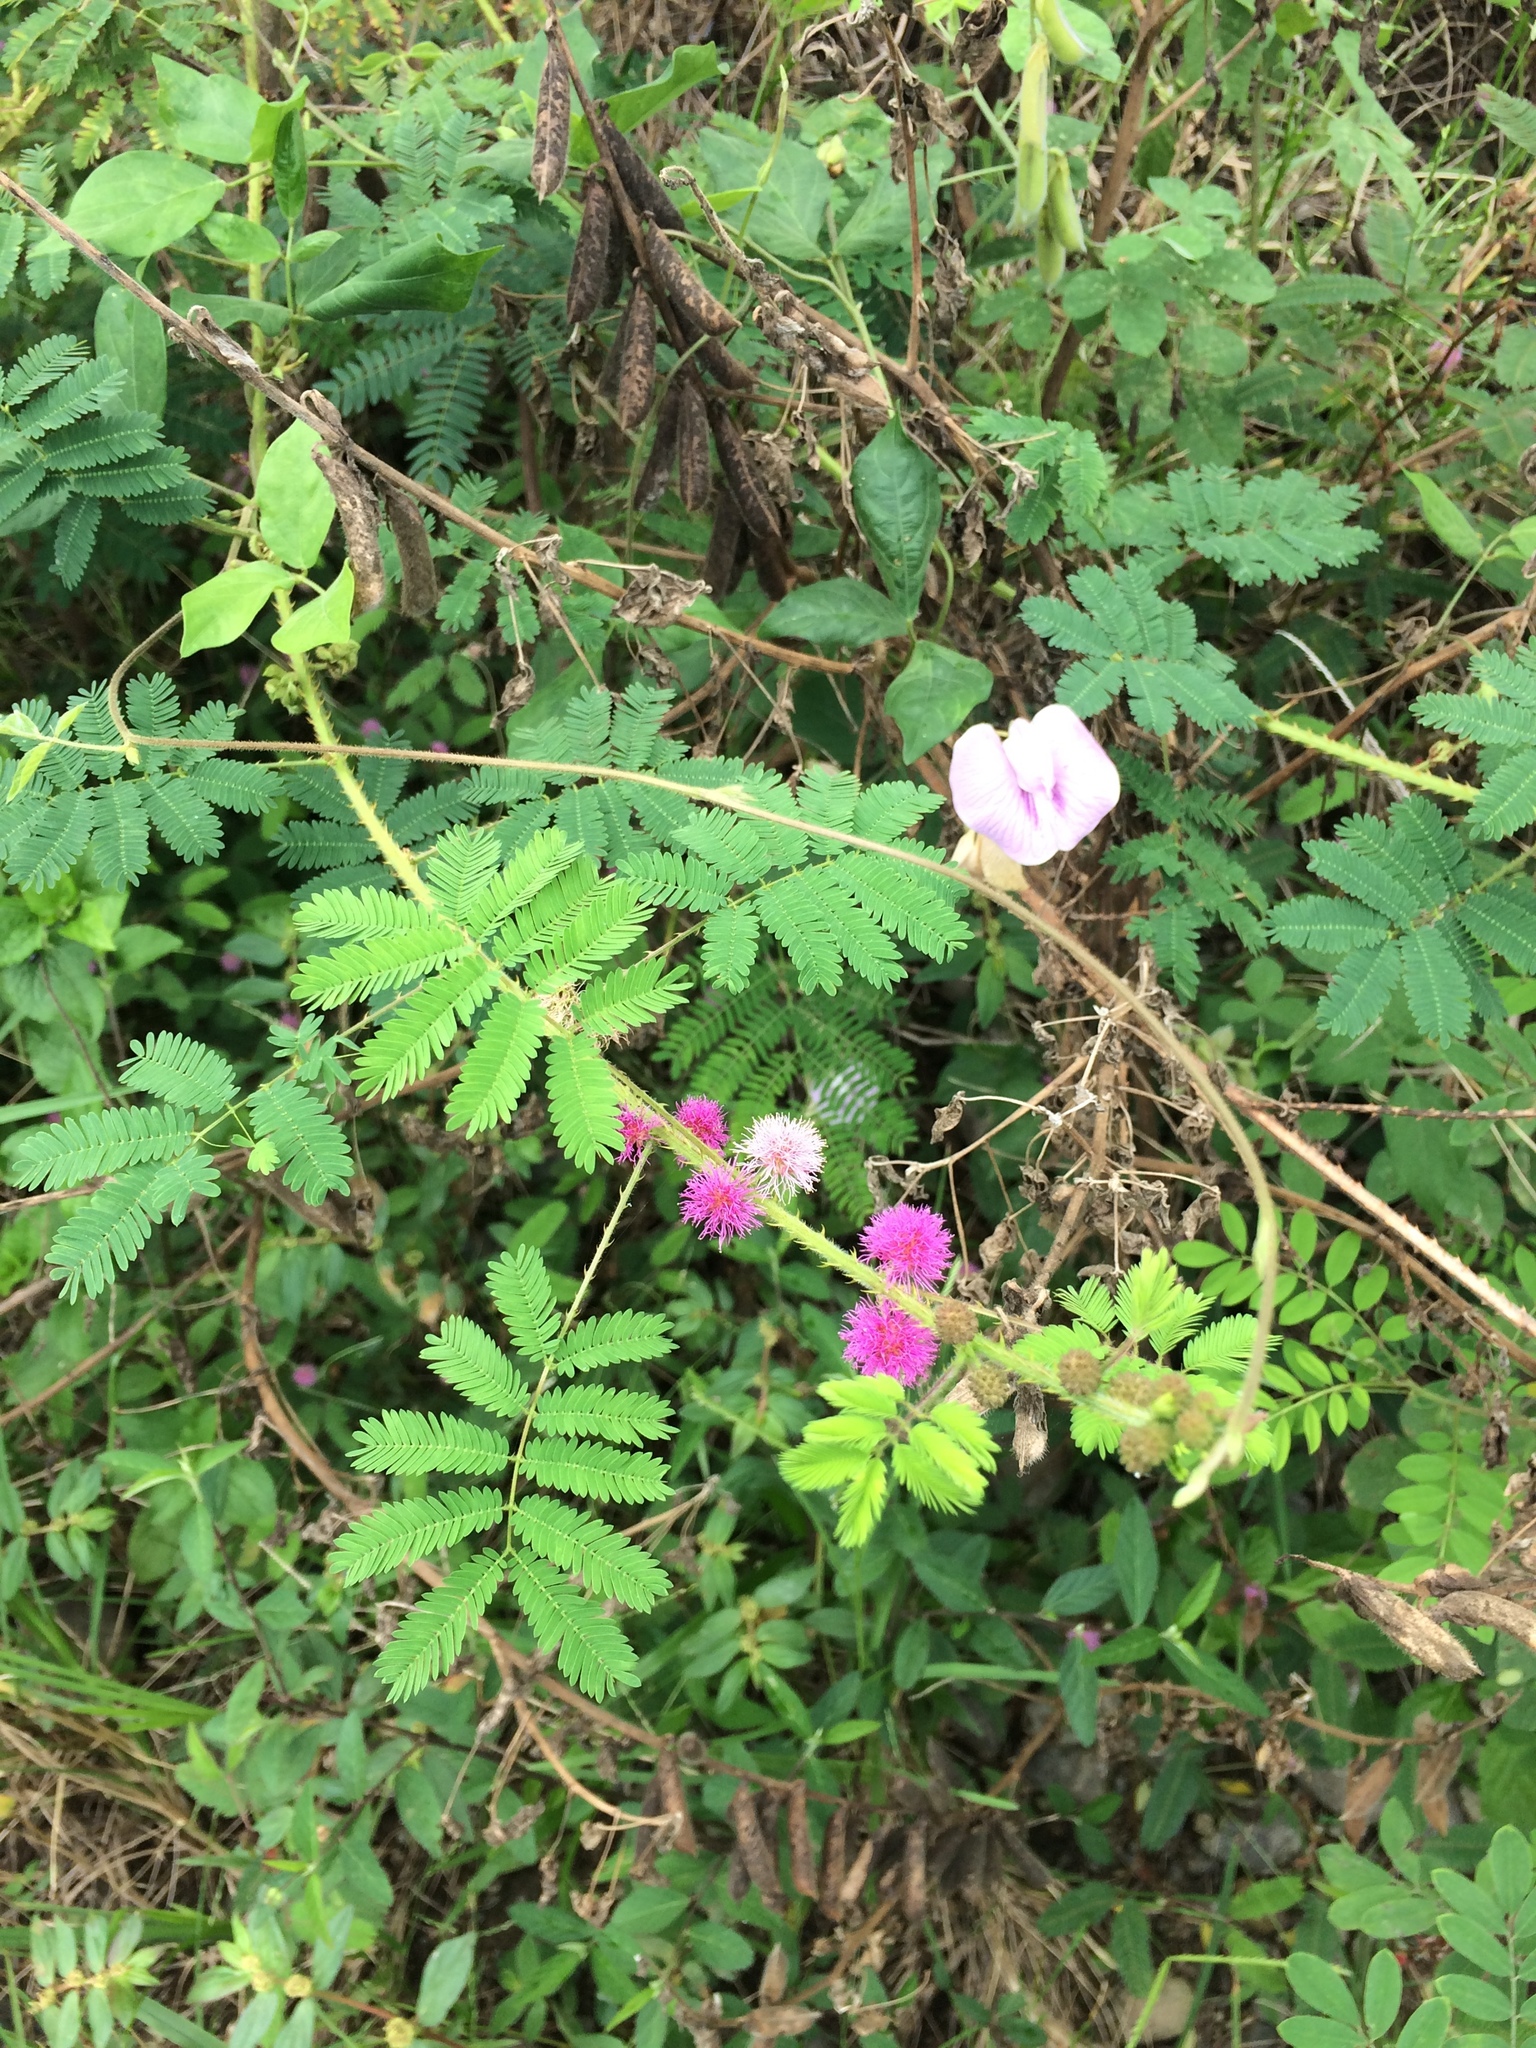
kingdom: Plantae
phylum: Tracheophyta
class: Magnoliopsida
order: Fabales
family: Fabaceae
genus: Mimosa
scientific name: Mimosa diplotricha
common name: Giant sensitive-plant
